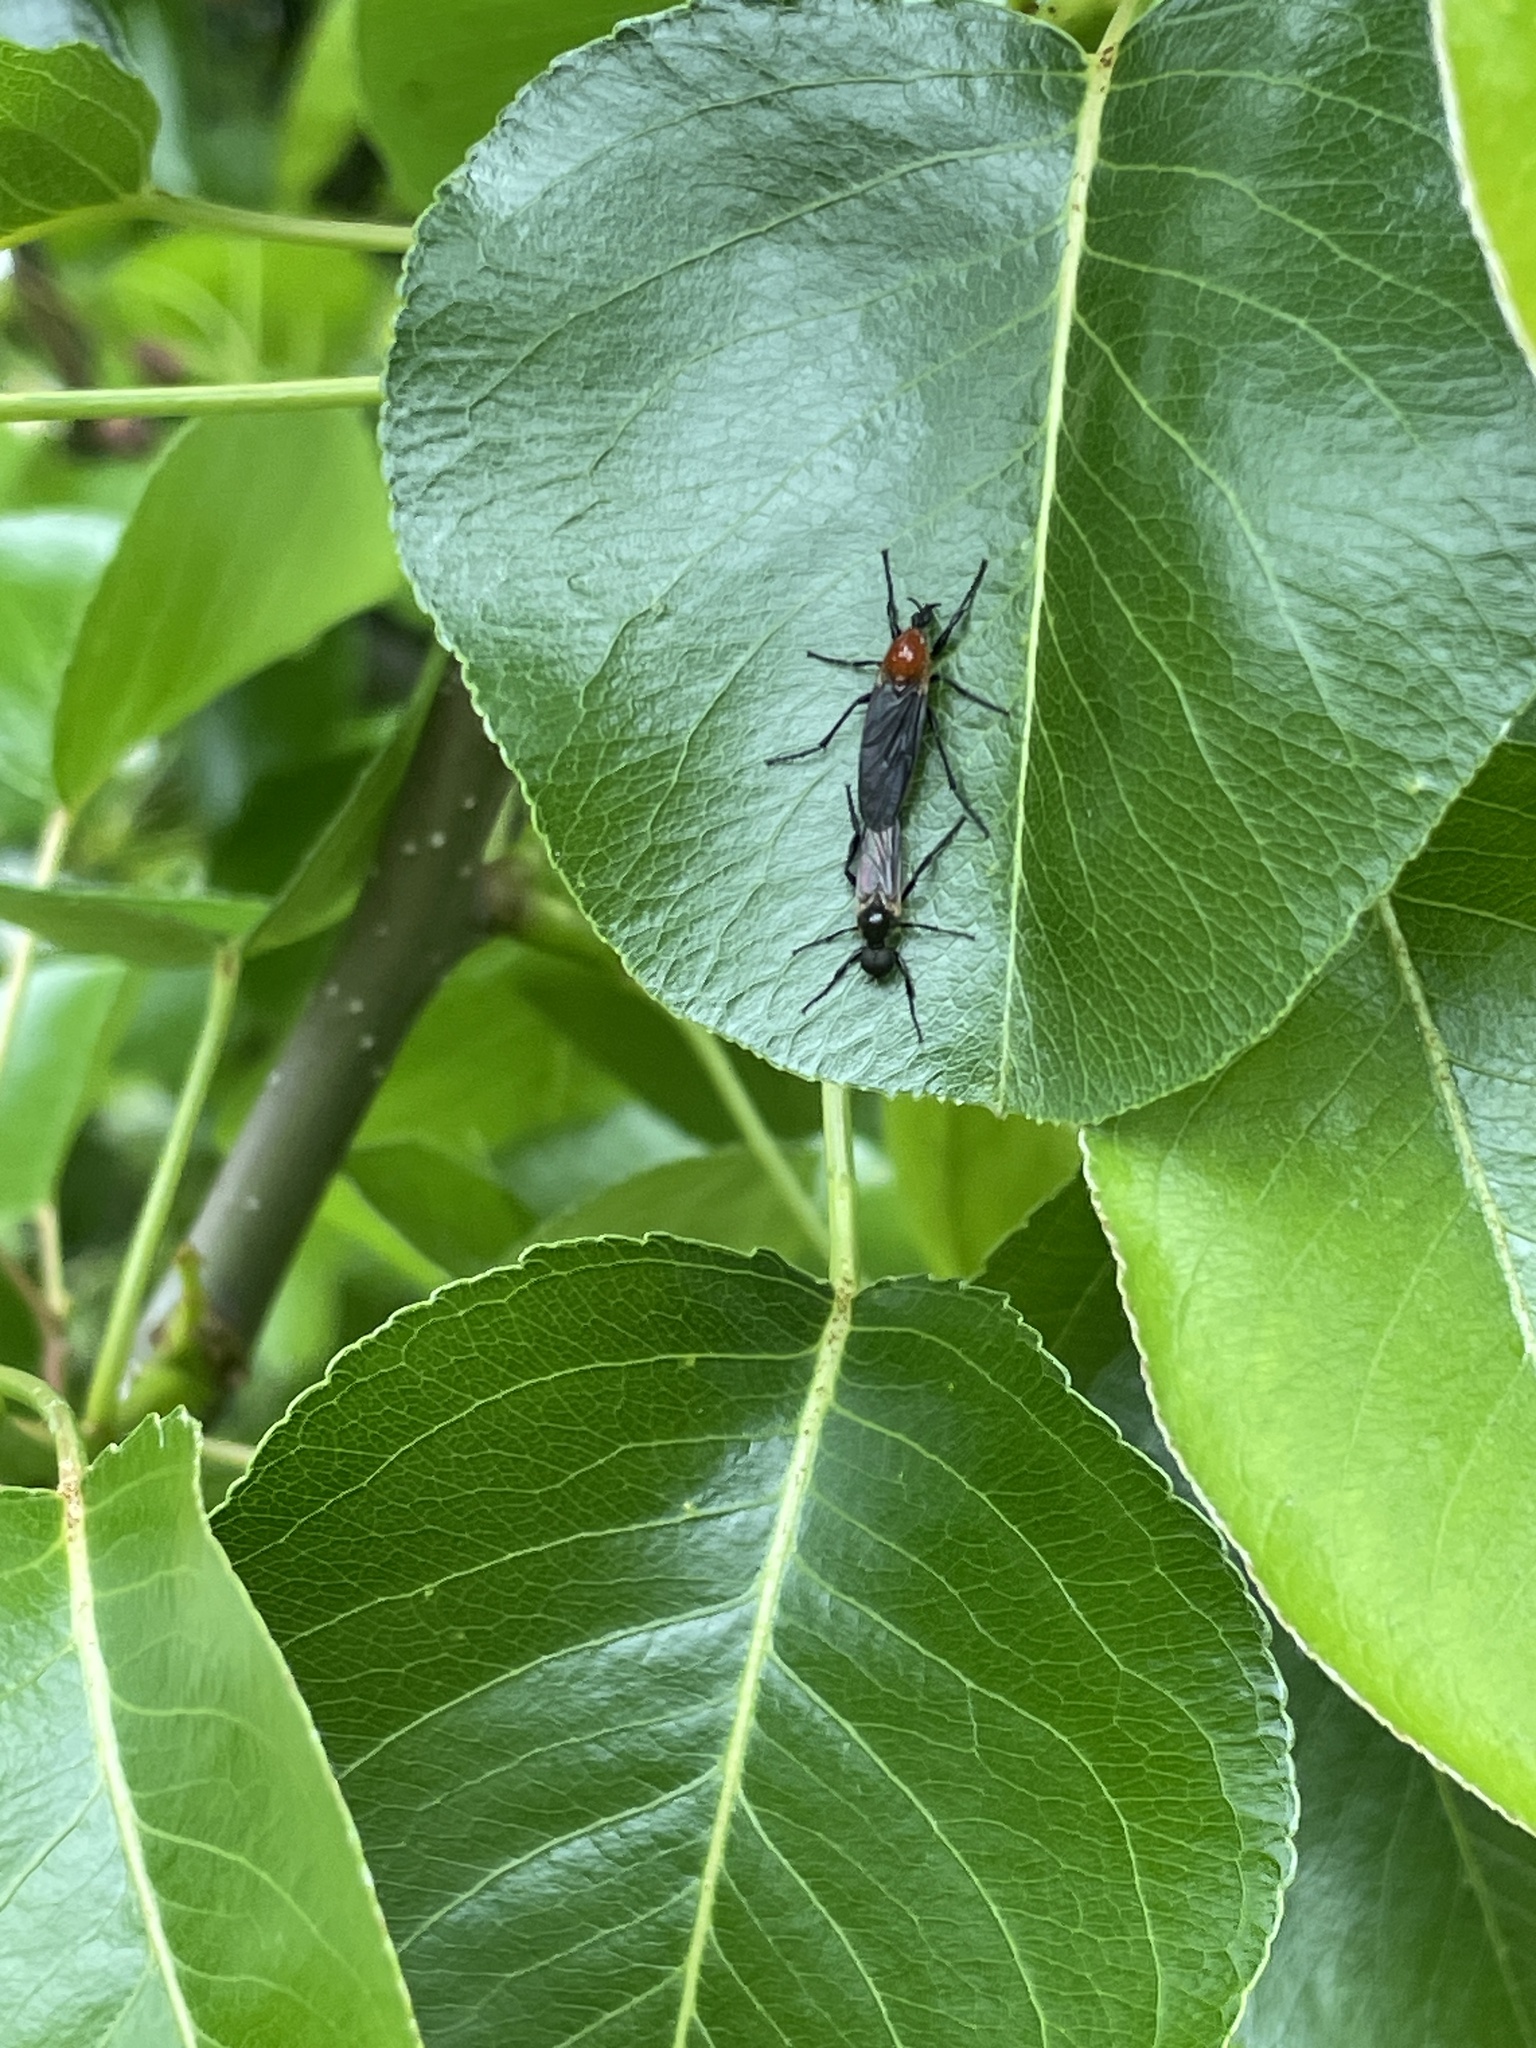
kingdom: Animalia
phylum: Arthropoda
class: Insecta
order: Diptera
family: Bibionidae
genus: Bibio
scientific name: Bibio imitator
